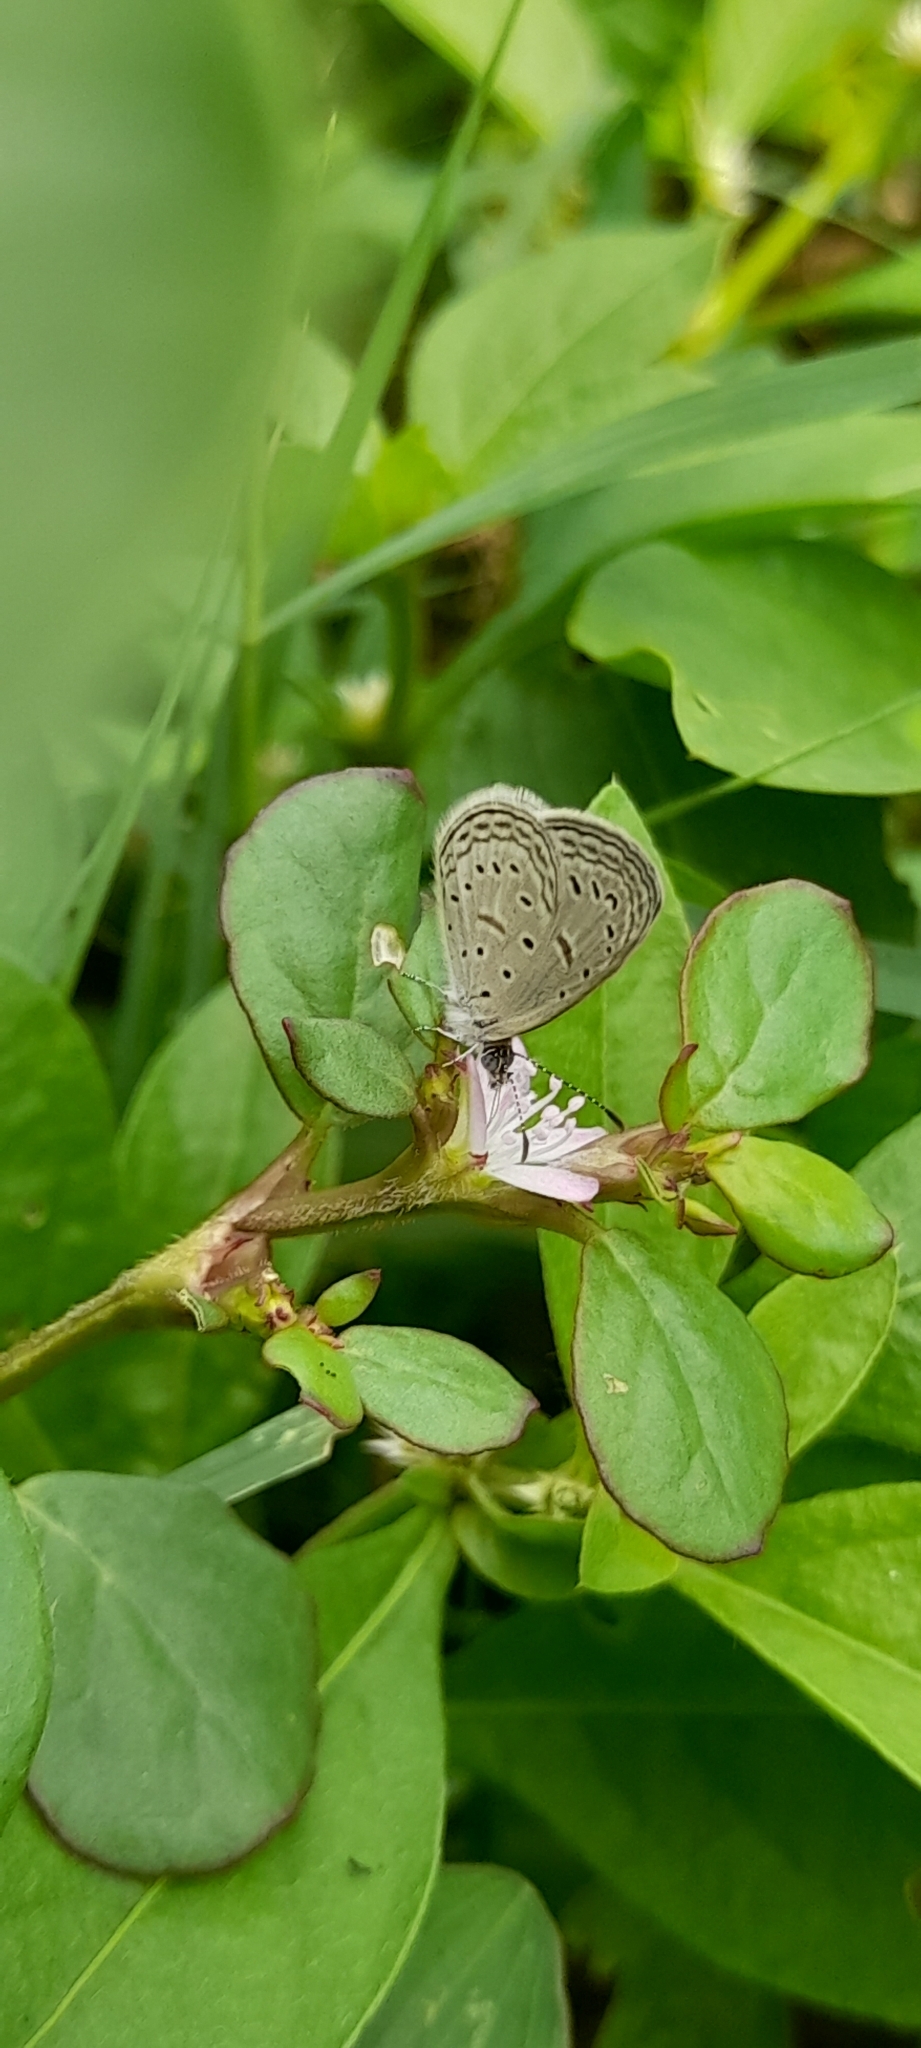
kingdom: Animalia
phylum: Arthropoda
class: Insecta
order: Lepidoptera
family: Lycaenidae
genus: Zizula
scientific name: Zizula hylax
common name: Gaika blue
